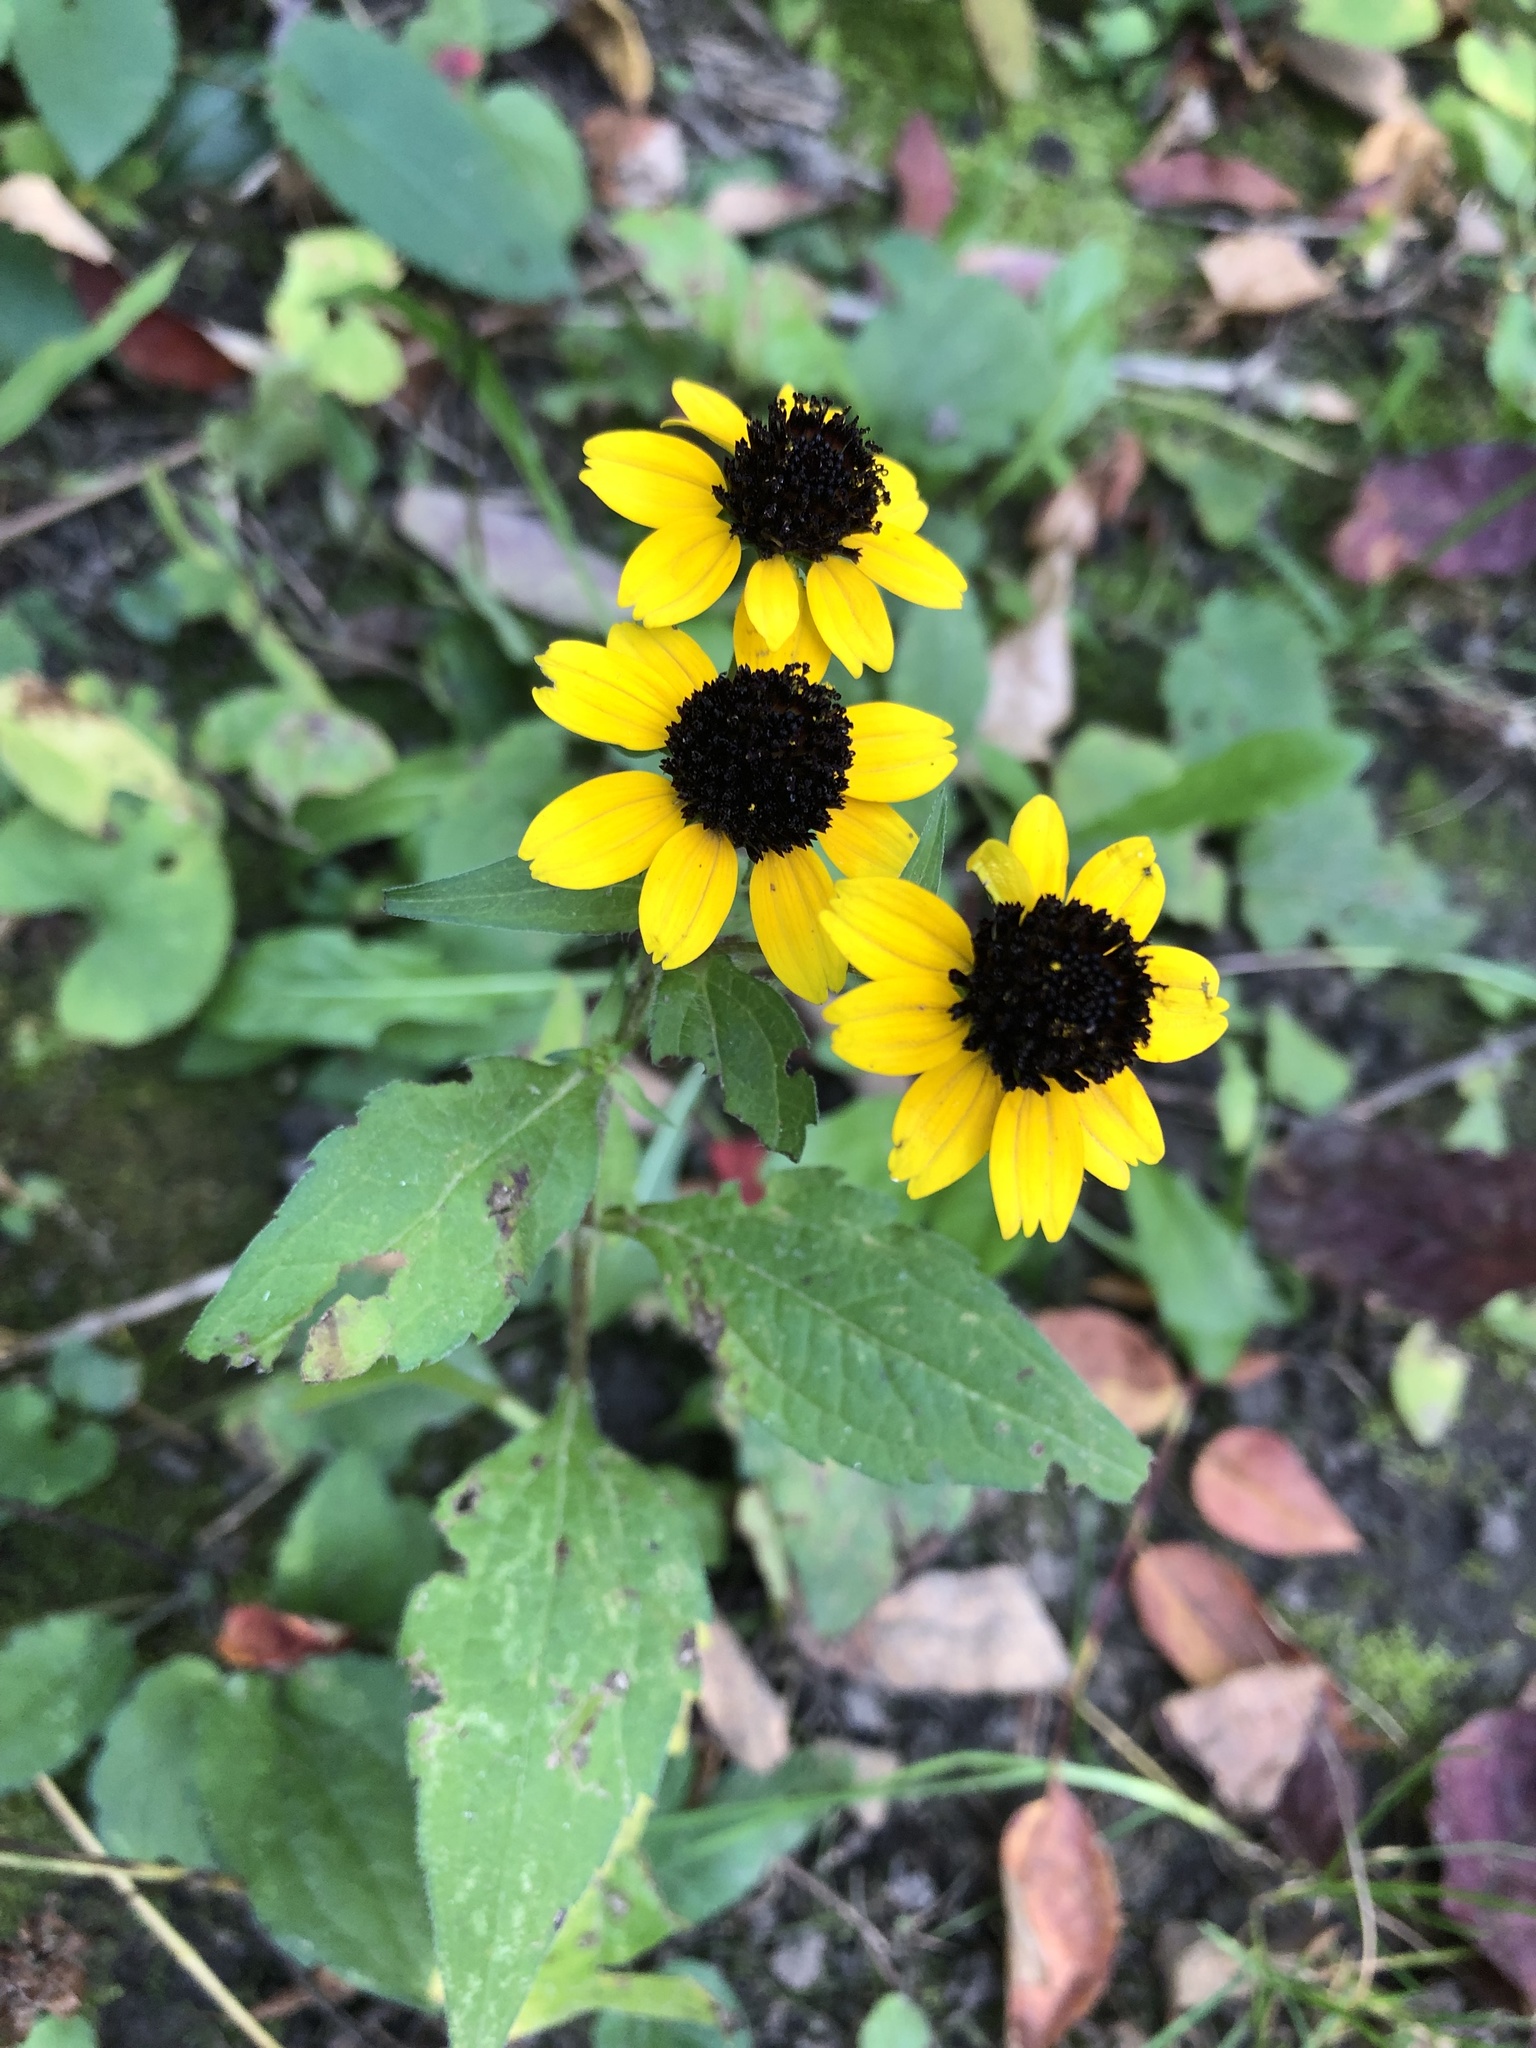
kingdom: Plantae
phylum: Tracheophyta
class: Magnoliopsida
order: Asterales
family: Asteraceae
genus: Rudbeckia
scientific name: Rudbeckia triloba
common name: Thin-leaved coneflower
